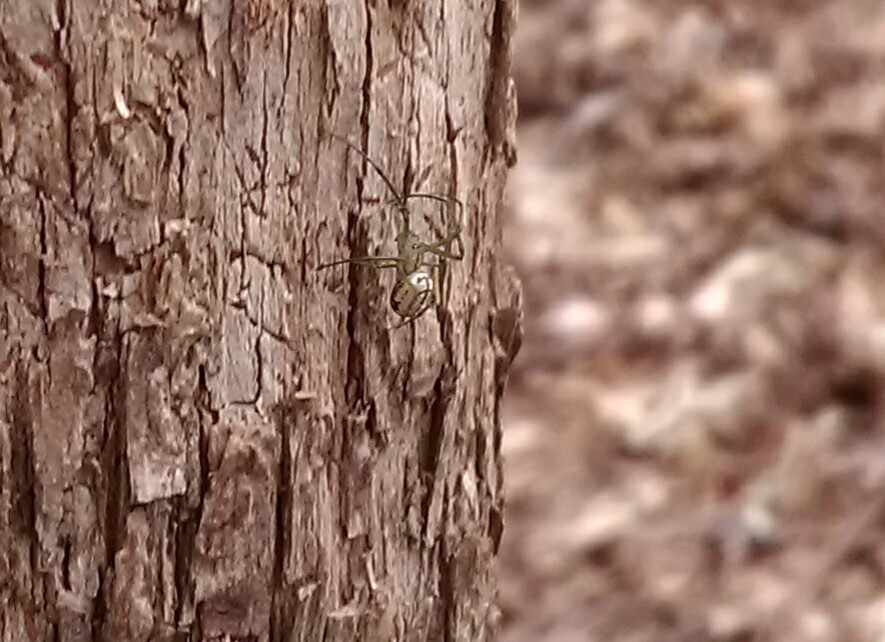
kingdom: Animalia
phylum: Arthropoda
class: Arachnida
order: Araneae
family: Tetragnathidae
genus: Leucauge
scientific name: Leucauge
